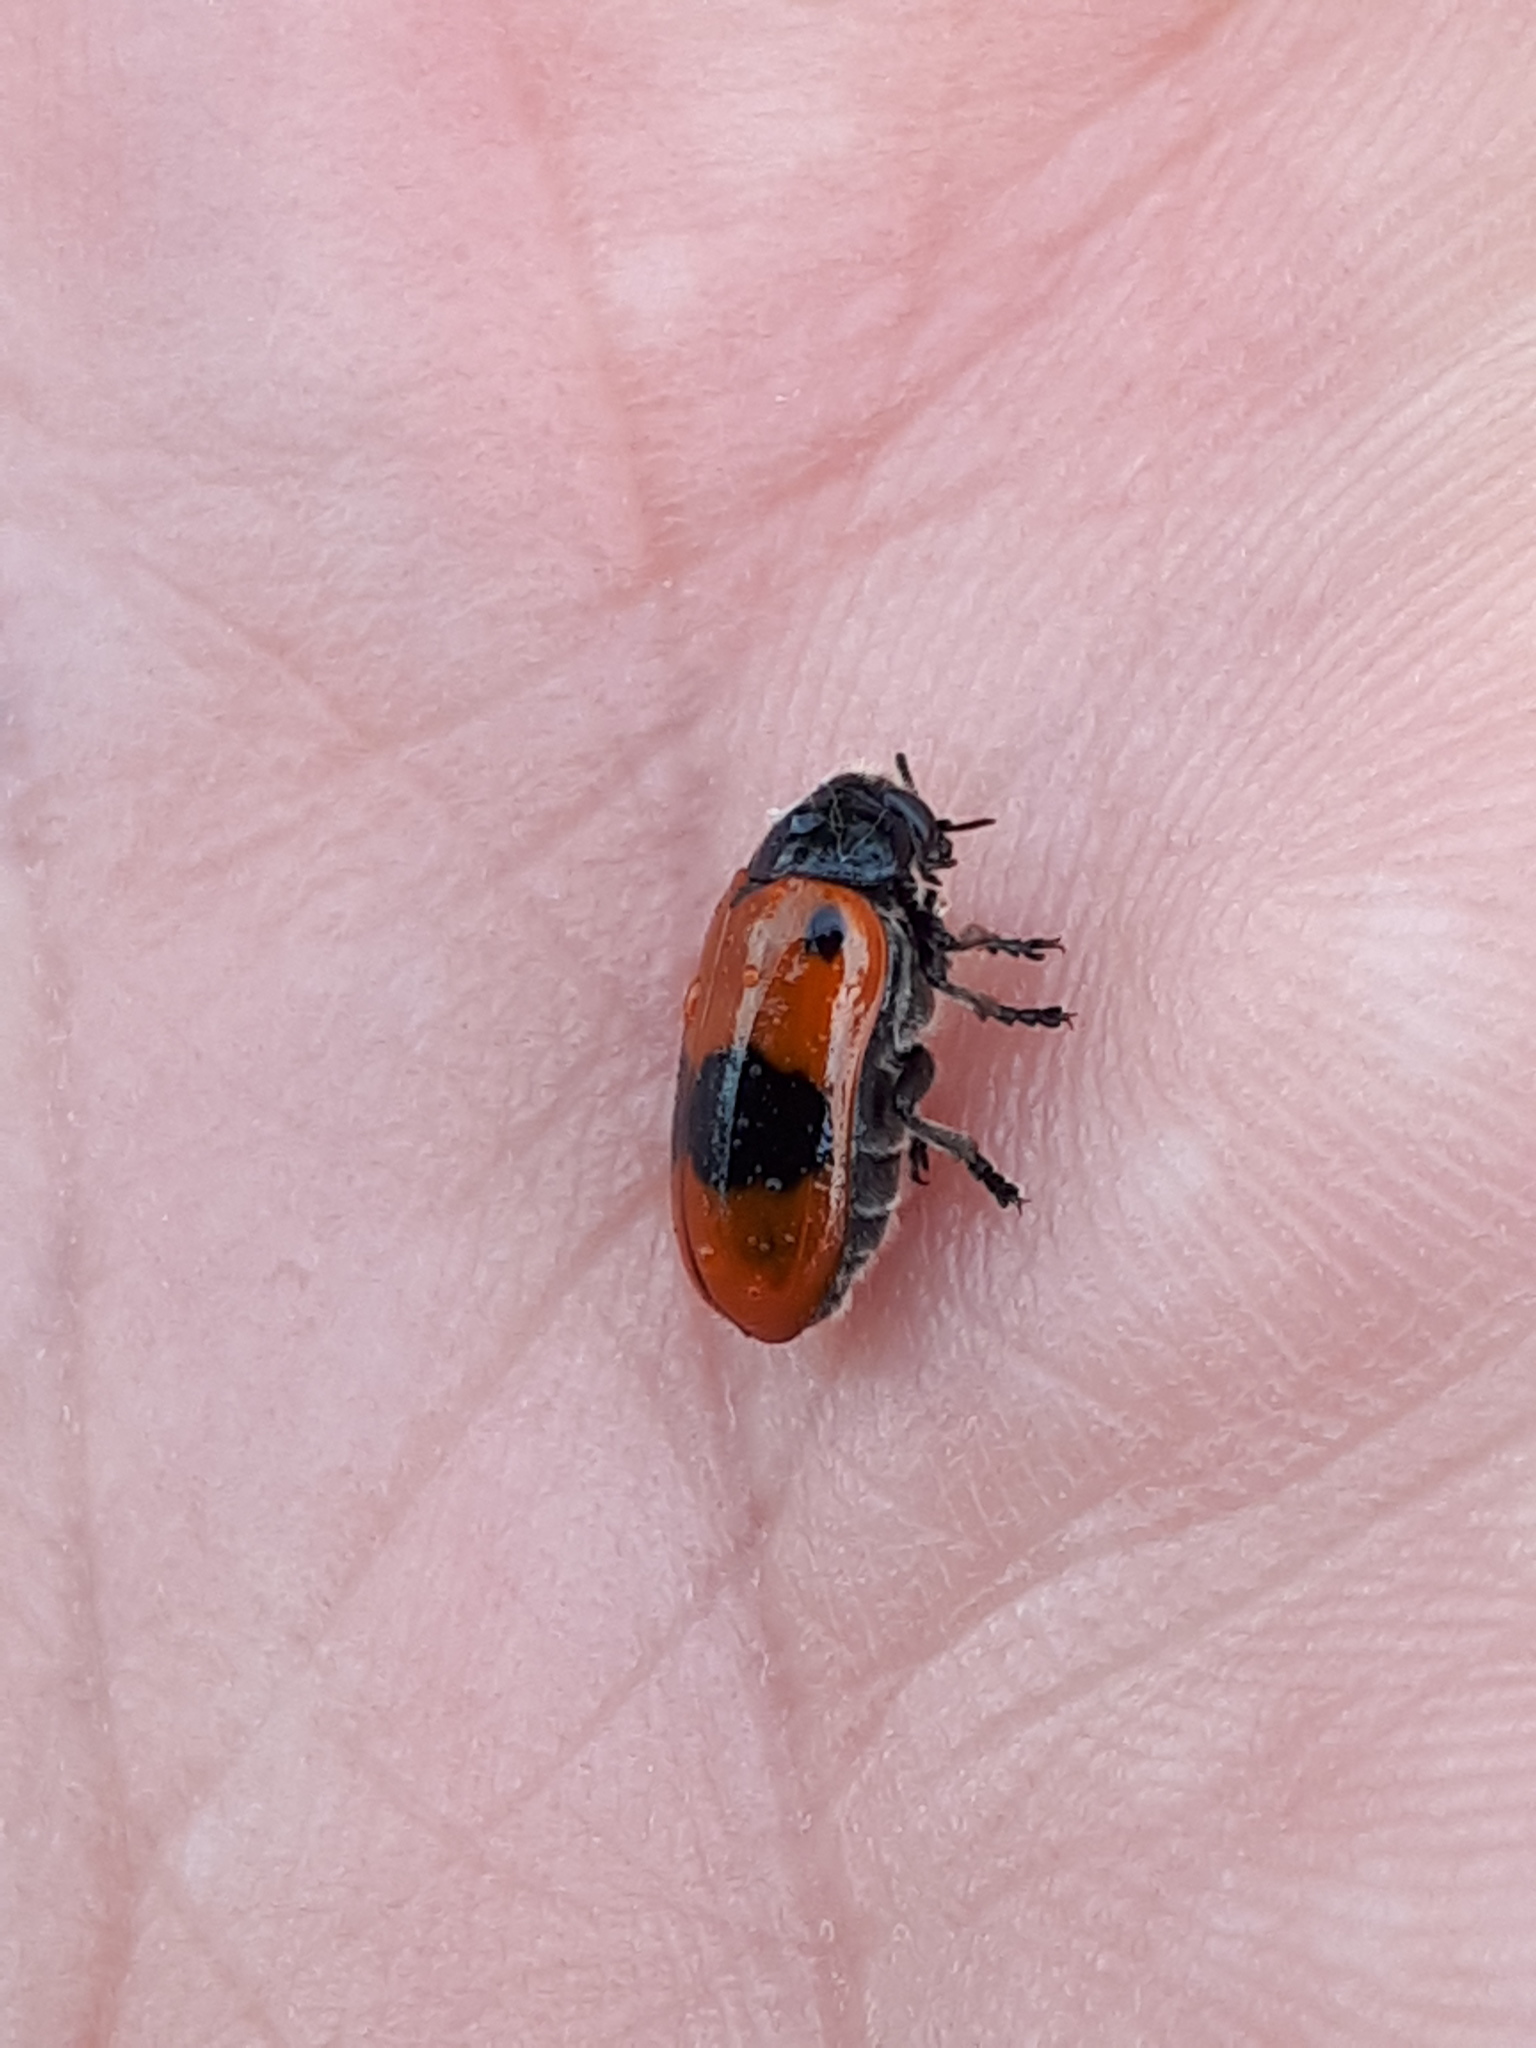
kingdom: Animalia
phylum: Arthropoda
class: Insecta
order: Coleoptera
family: Chrysomelidae
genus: Clytra
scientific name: Clytra laeviuscula
